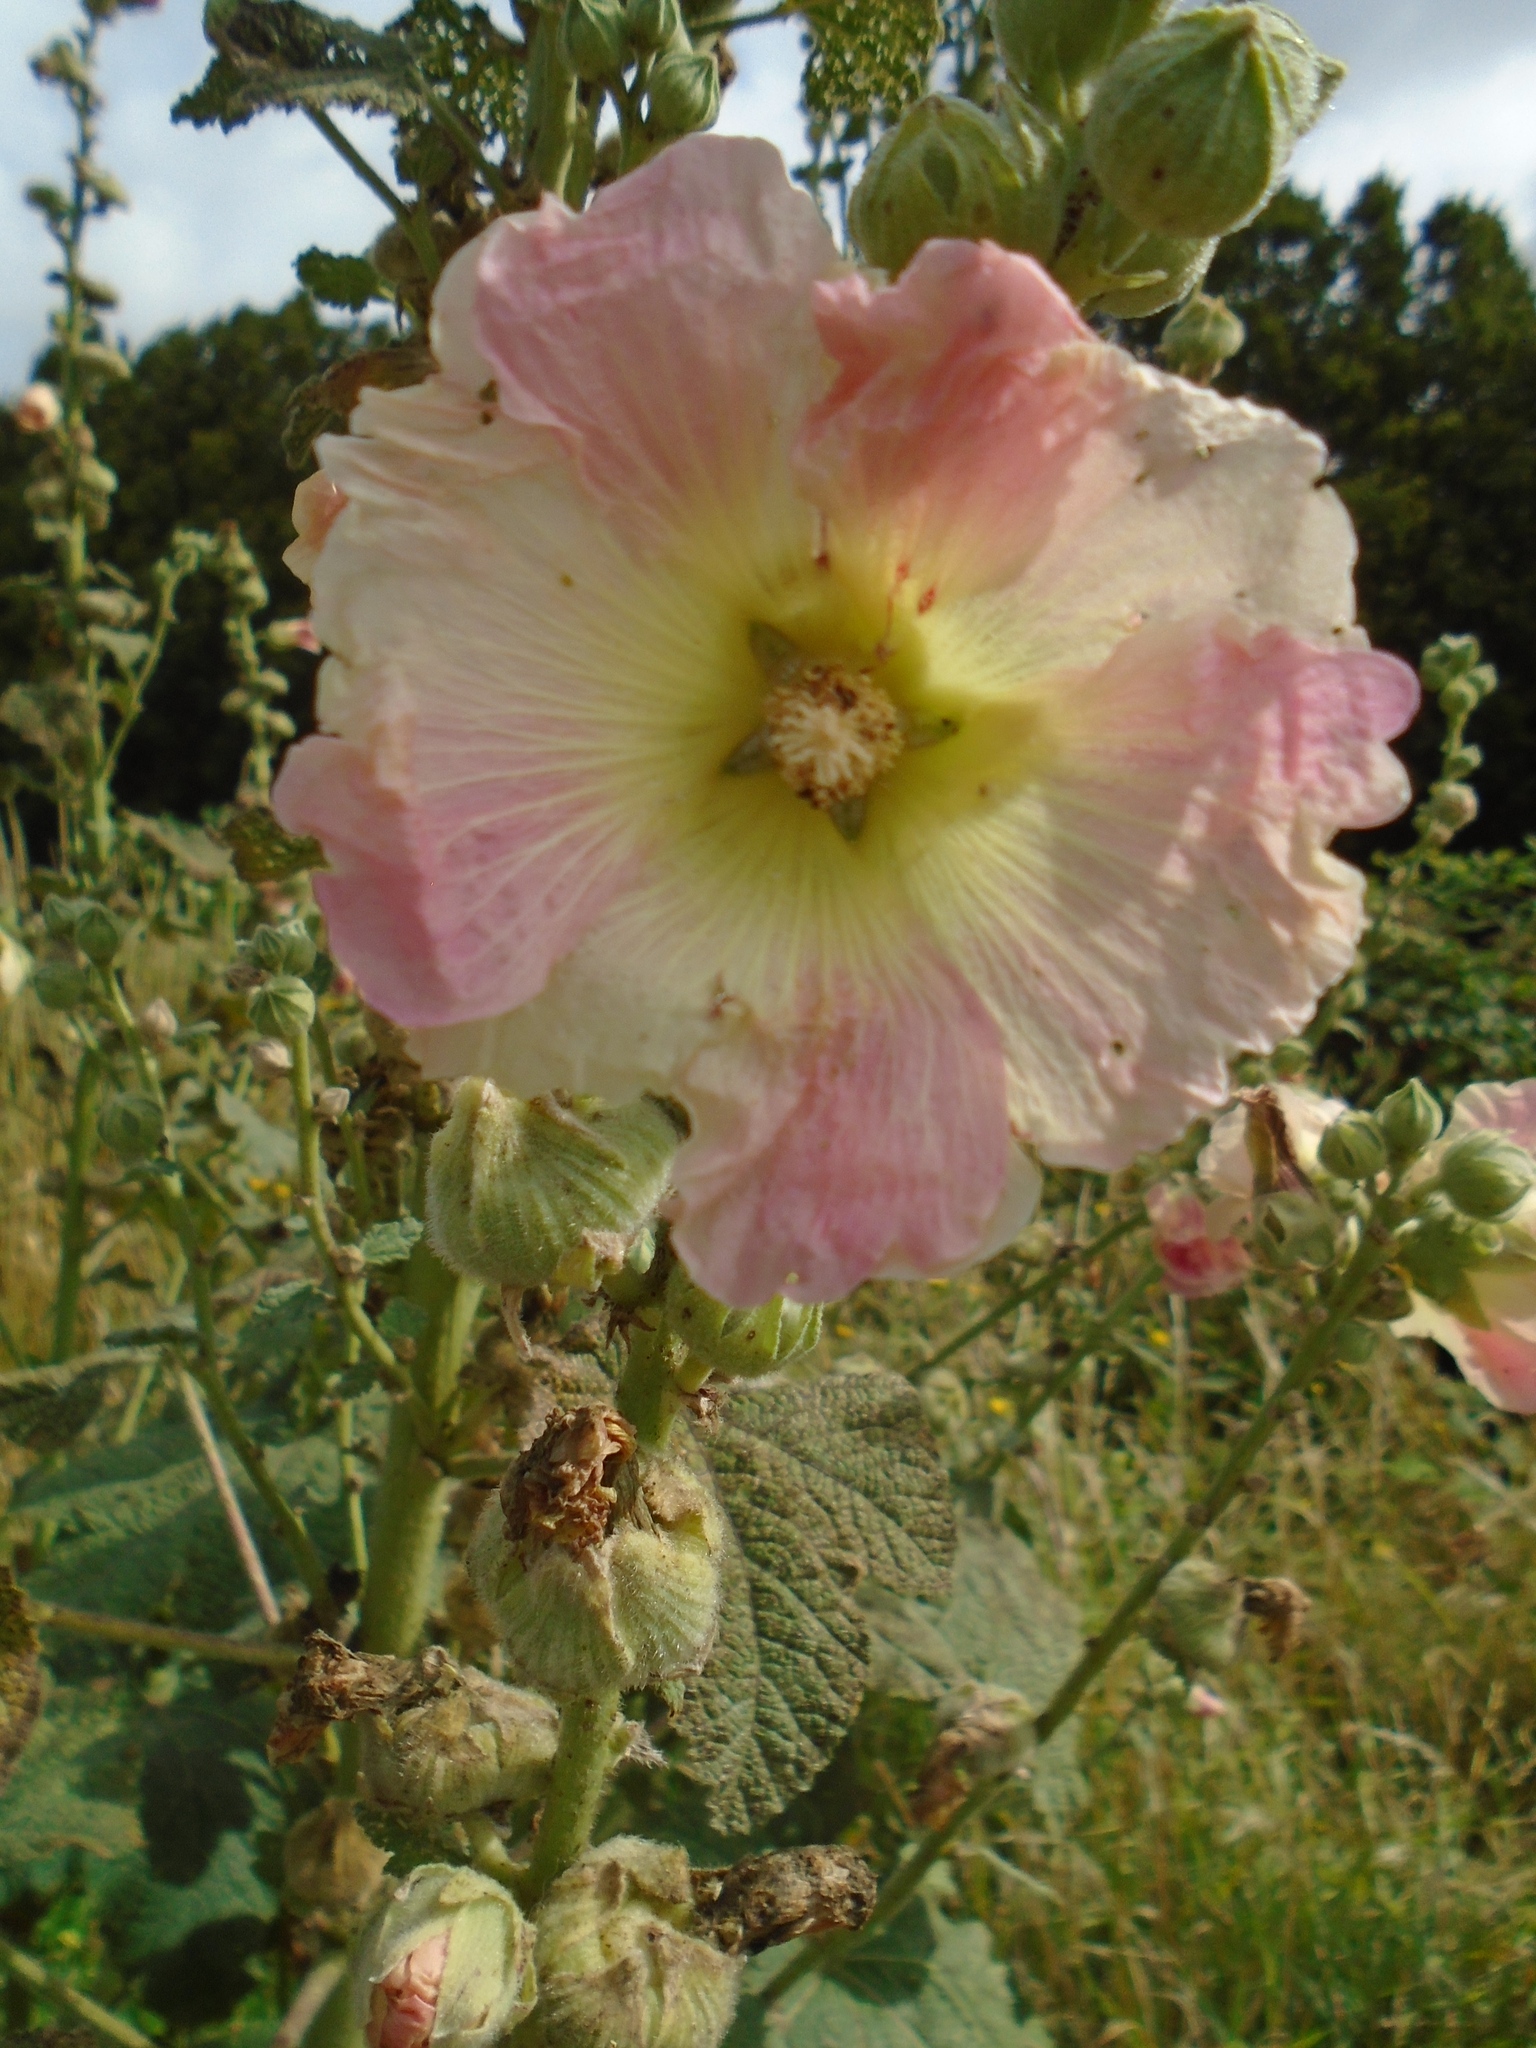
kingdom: Plantae
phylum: Tracheophyta
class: Magnoliopsida
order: Malvales
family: Malvaceae
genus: Alcea
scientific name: Alcea rosea
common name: Hollyhock
